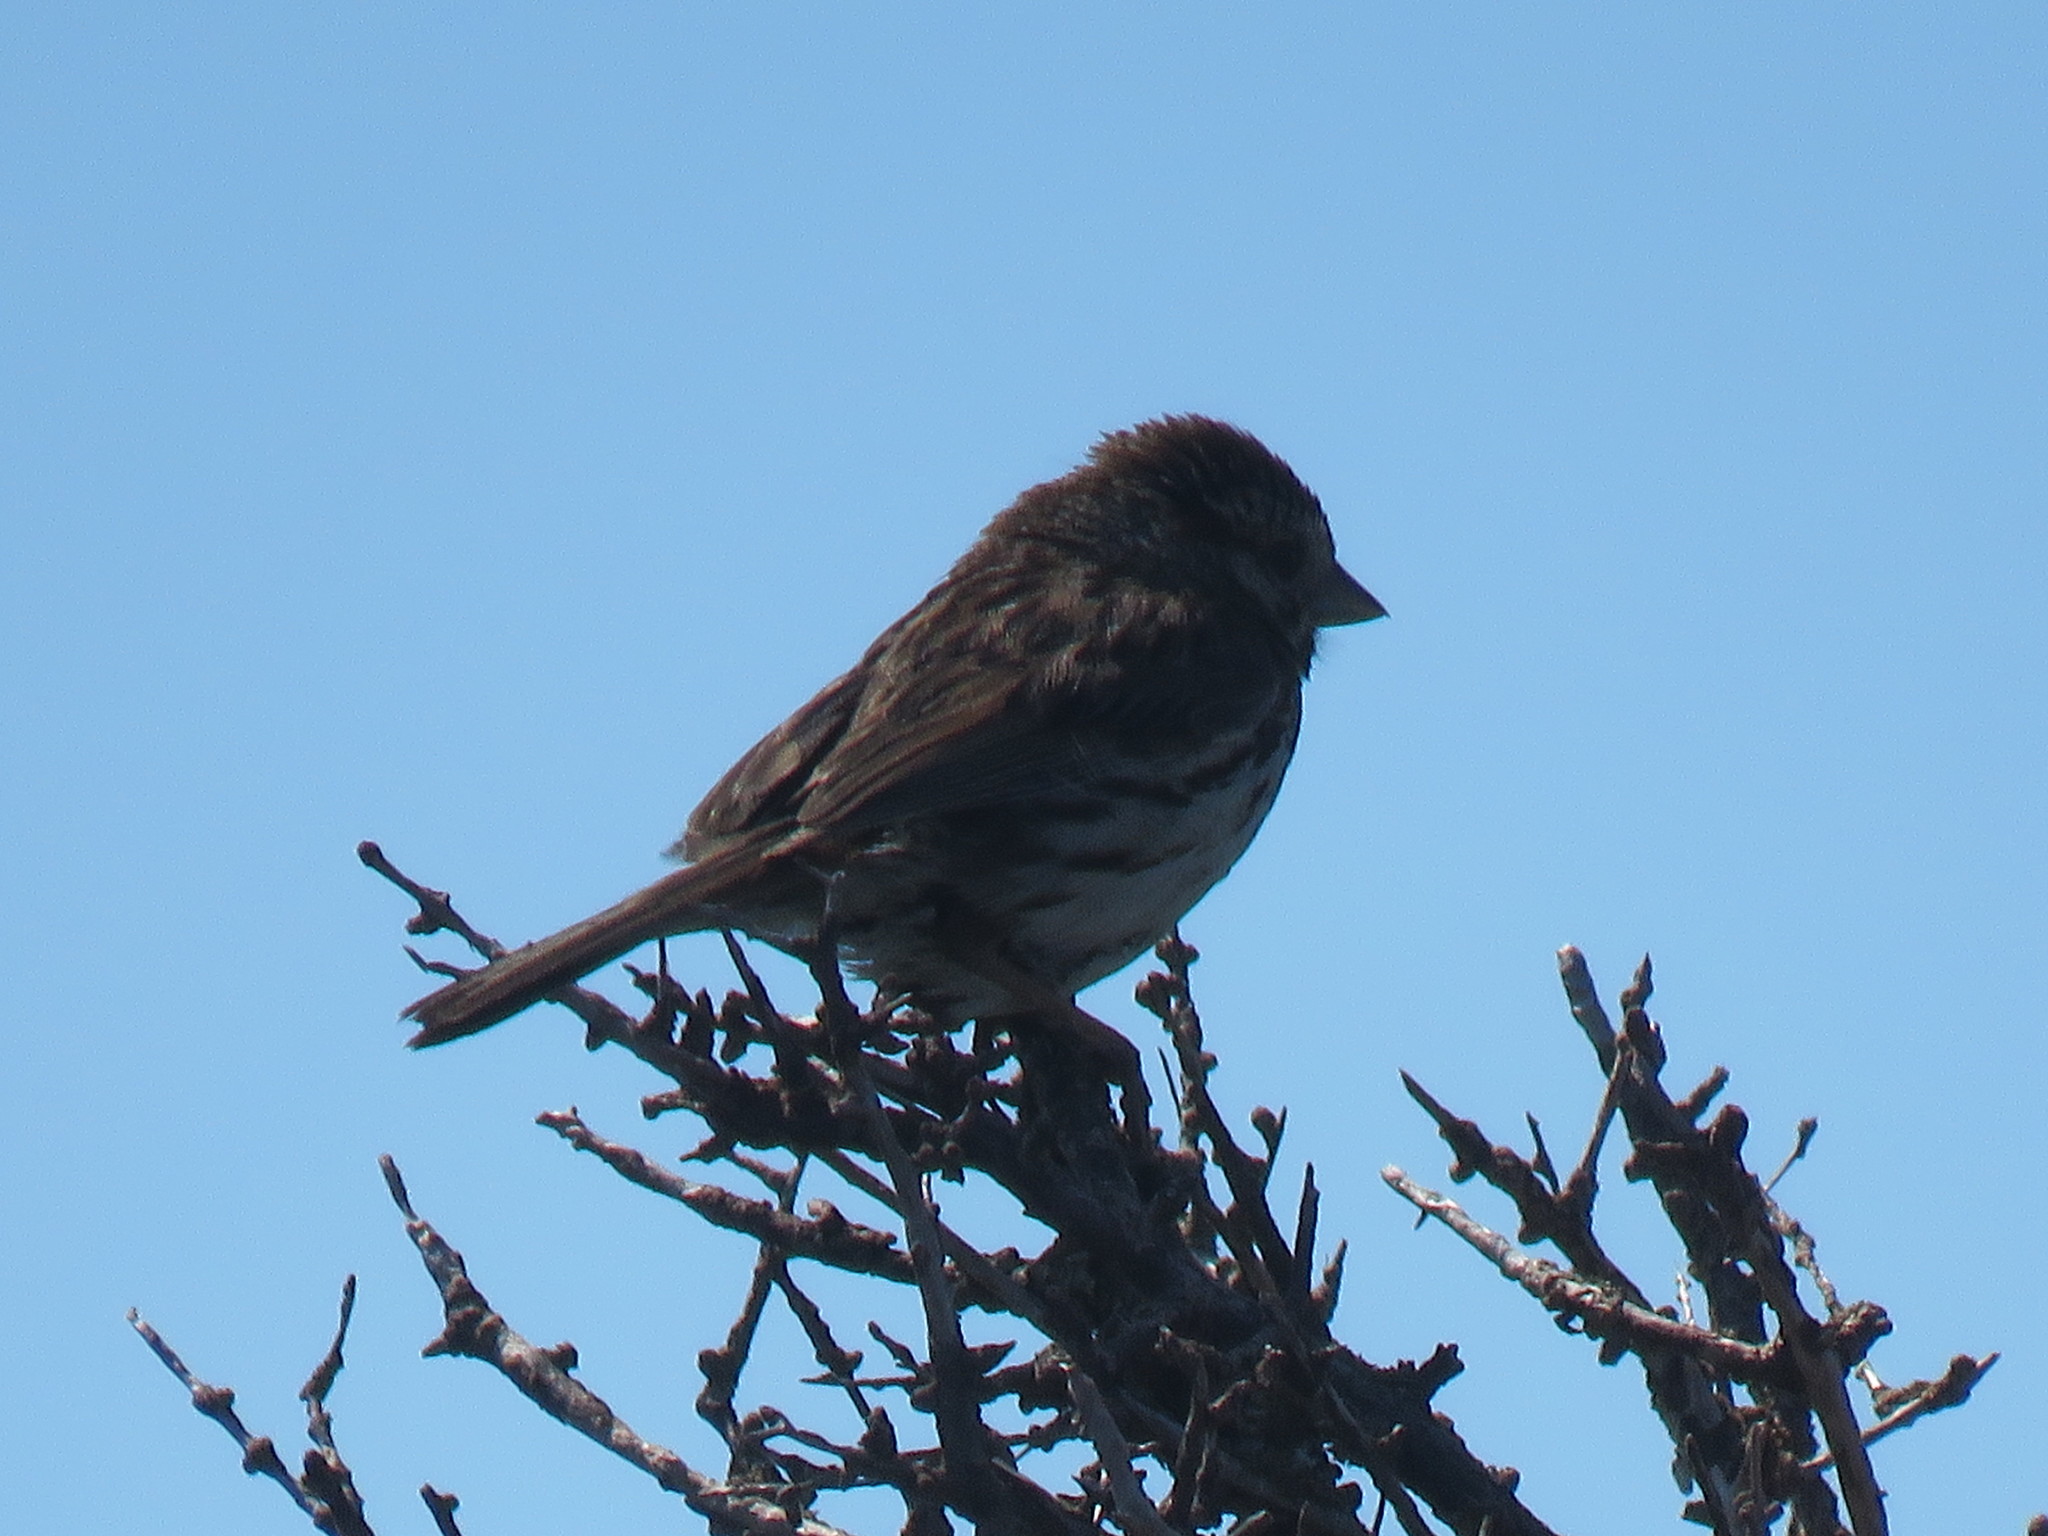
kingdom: Animalia
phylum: Chordata
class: Aves
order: Passeriformes
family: Passerellidae
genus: Melospiza
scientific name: Melospiza melodia
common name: Song sparrow
